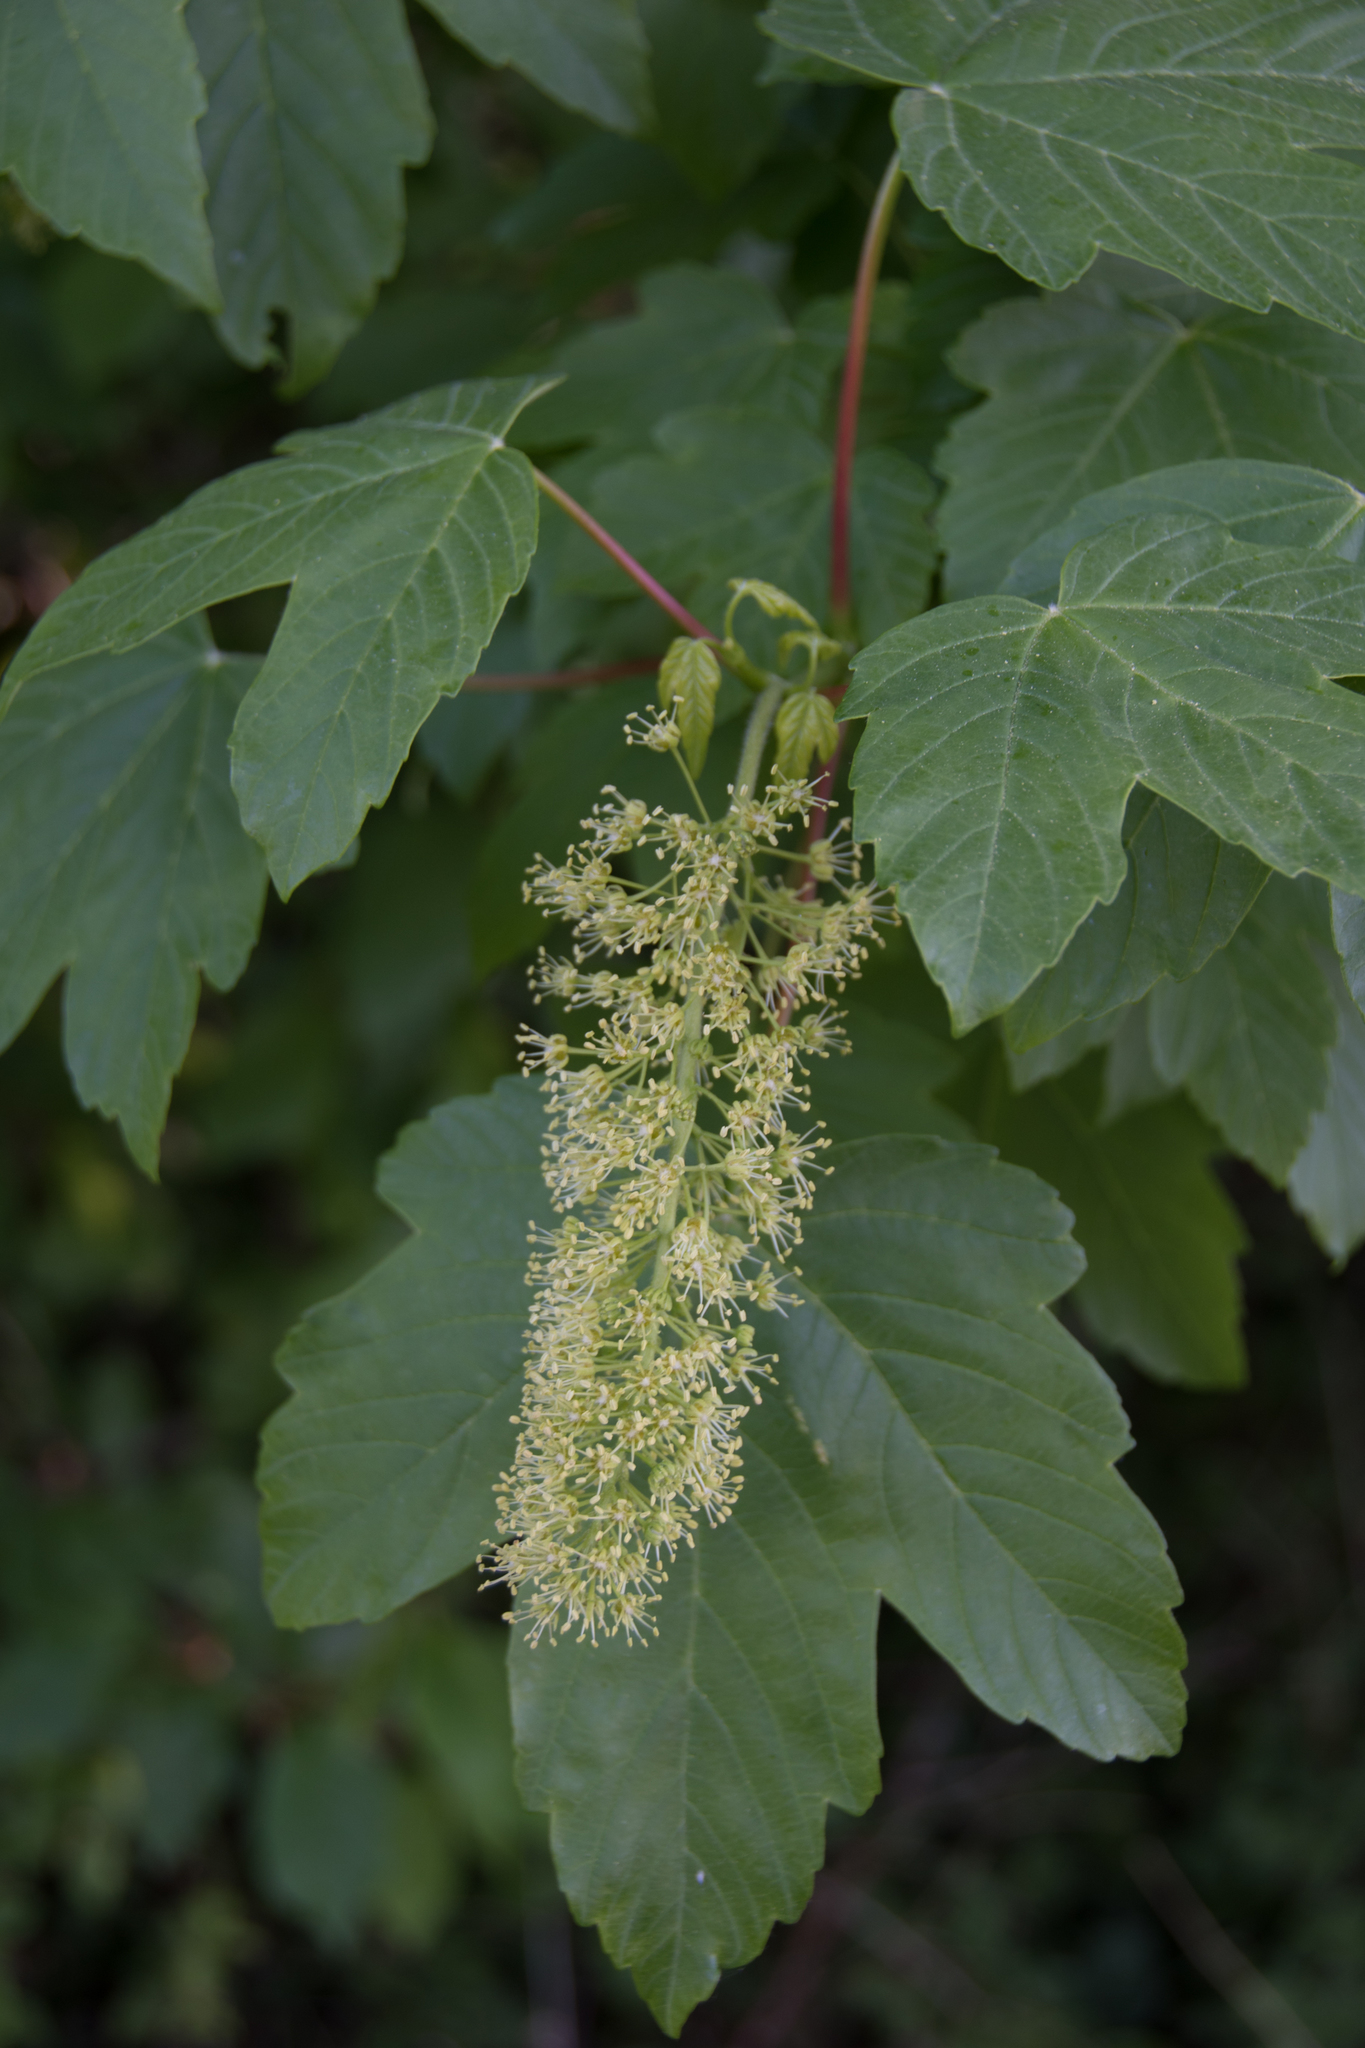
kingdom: Plantae
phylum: Tracheophyta
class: Magnoliopsida
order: Sapindales
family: Sapindaceae
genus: Acer
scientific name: Acer pseudoplatanus
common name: Sycamore
